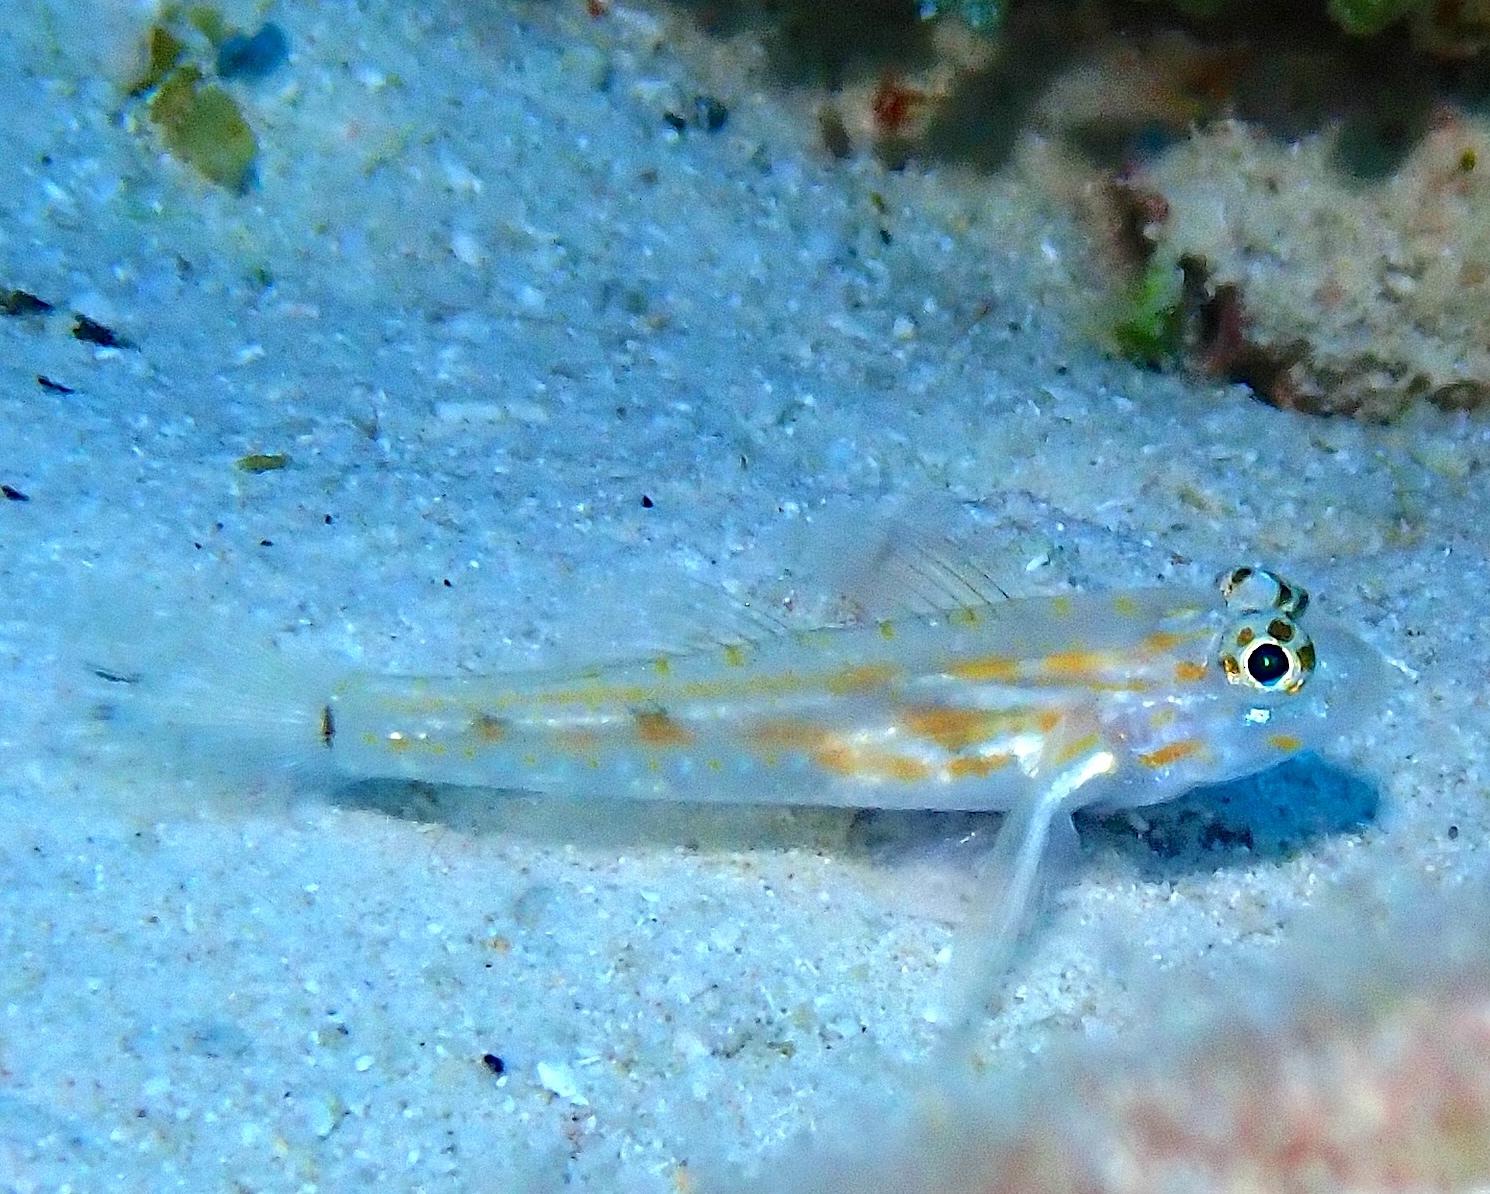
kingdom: Animalia
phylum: Chordata
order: Perciformes
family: Gobiidae
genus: Coryphopterus
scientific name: Coryphopterus eidolon
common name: Pallid goby
